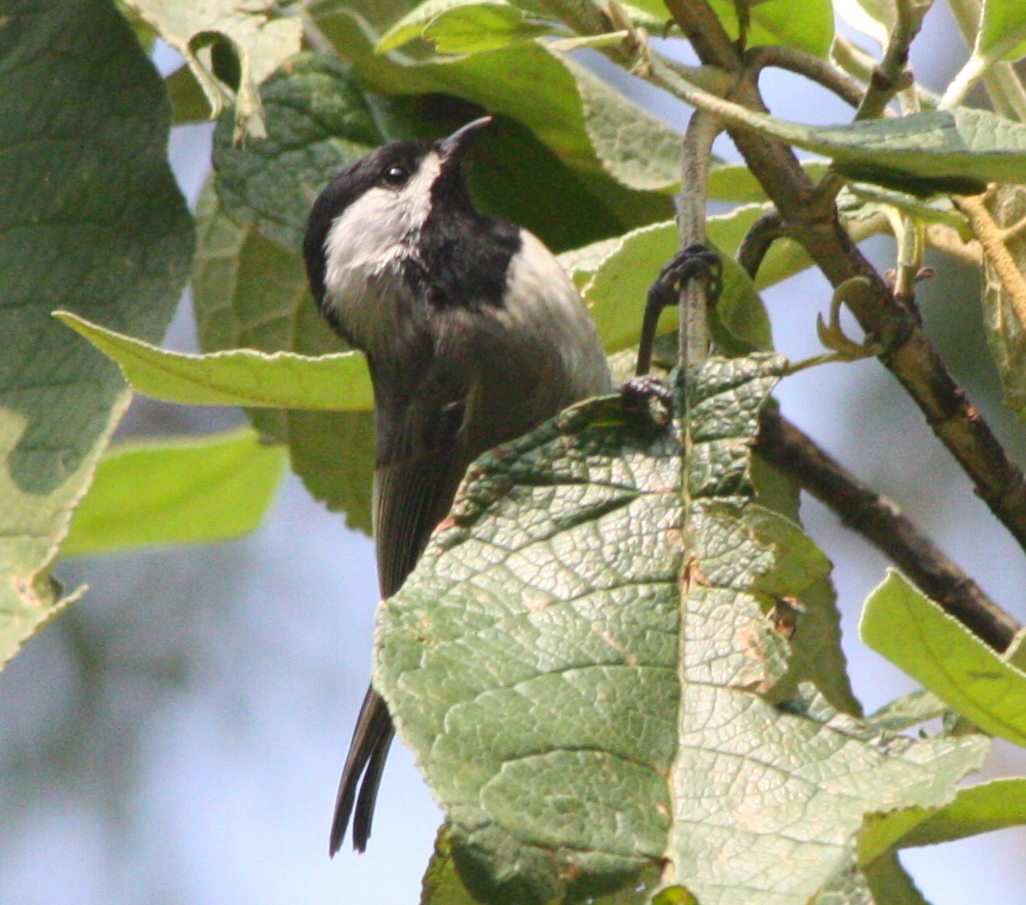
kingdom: Animalia
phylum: Chordata
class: Aves
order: Passeriformes
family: Paridae
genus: Poecile
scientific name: Poecile sclateri
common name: Mexican chickadee
